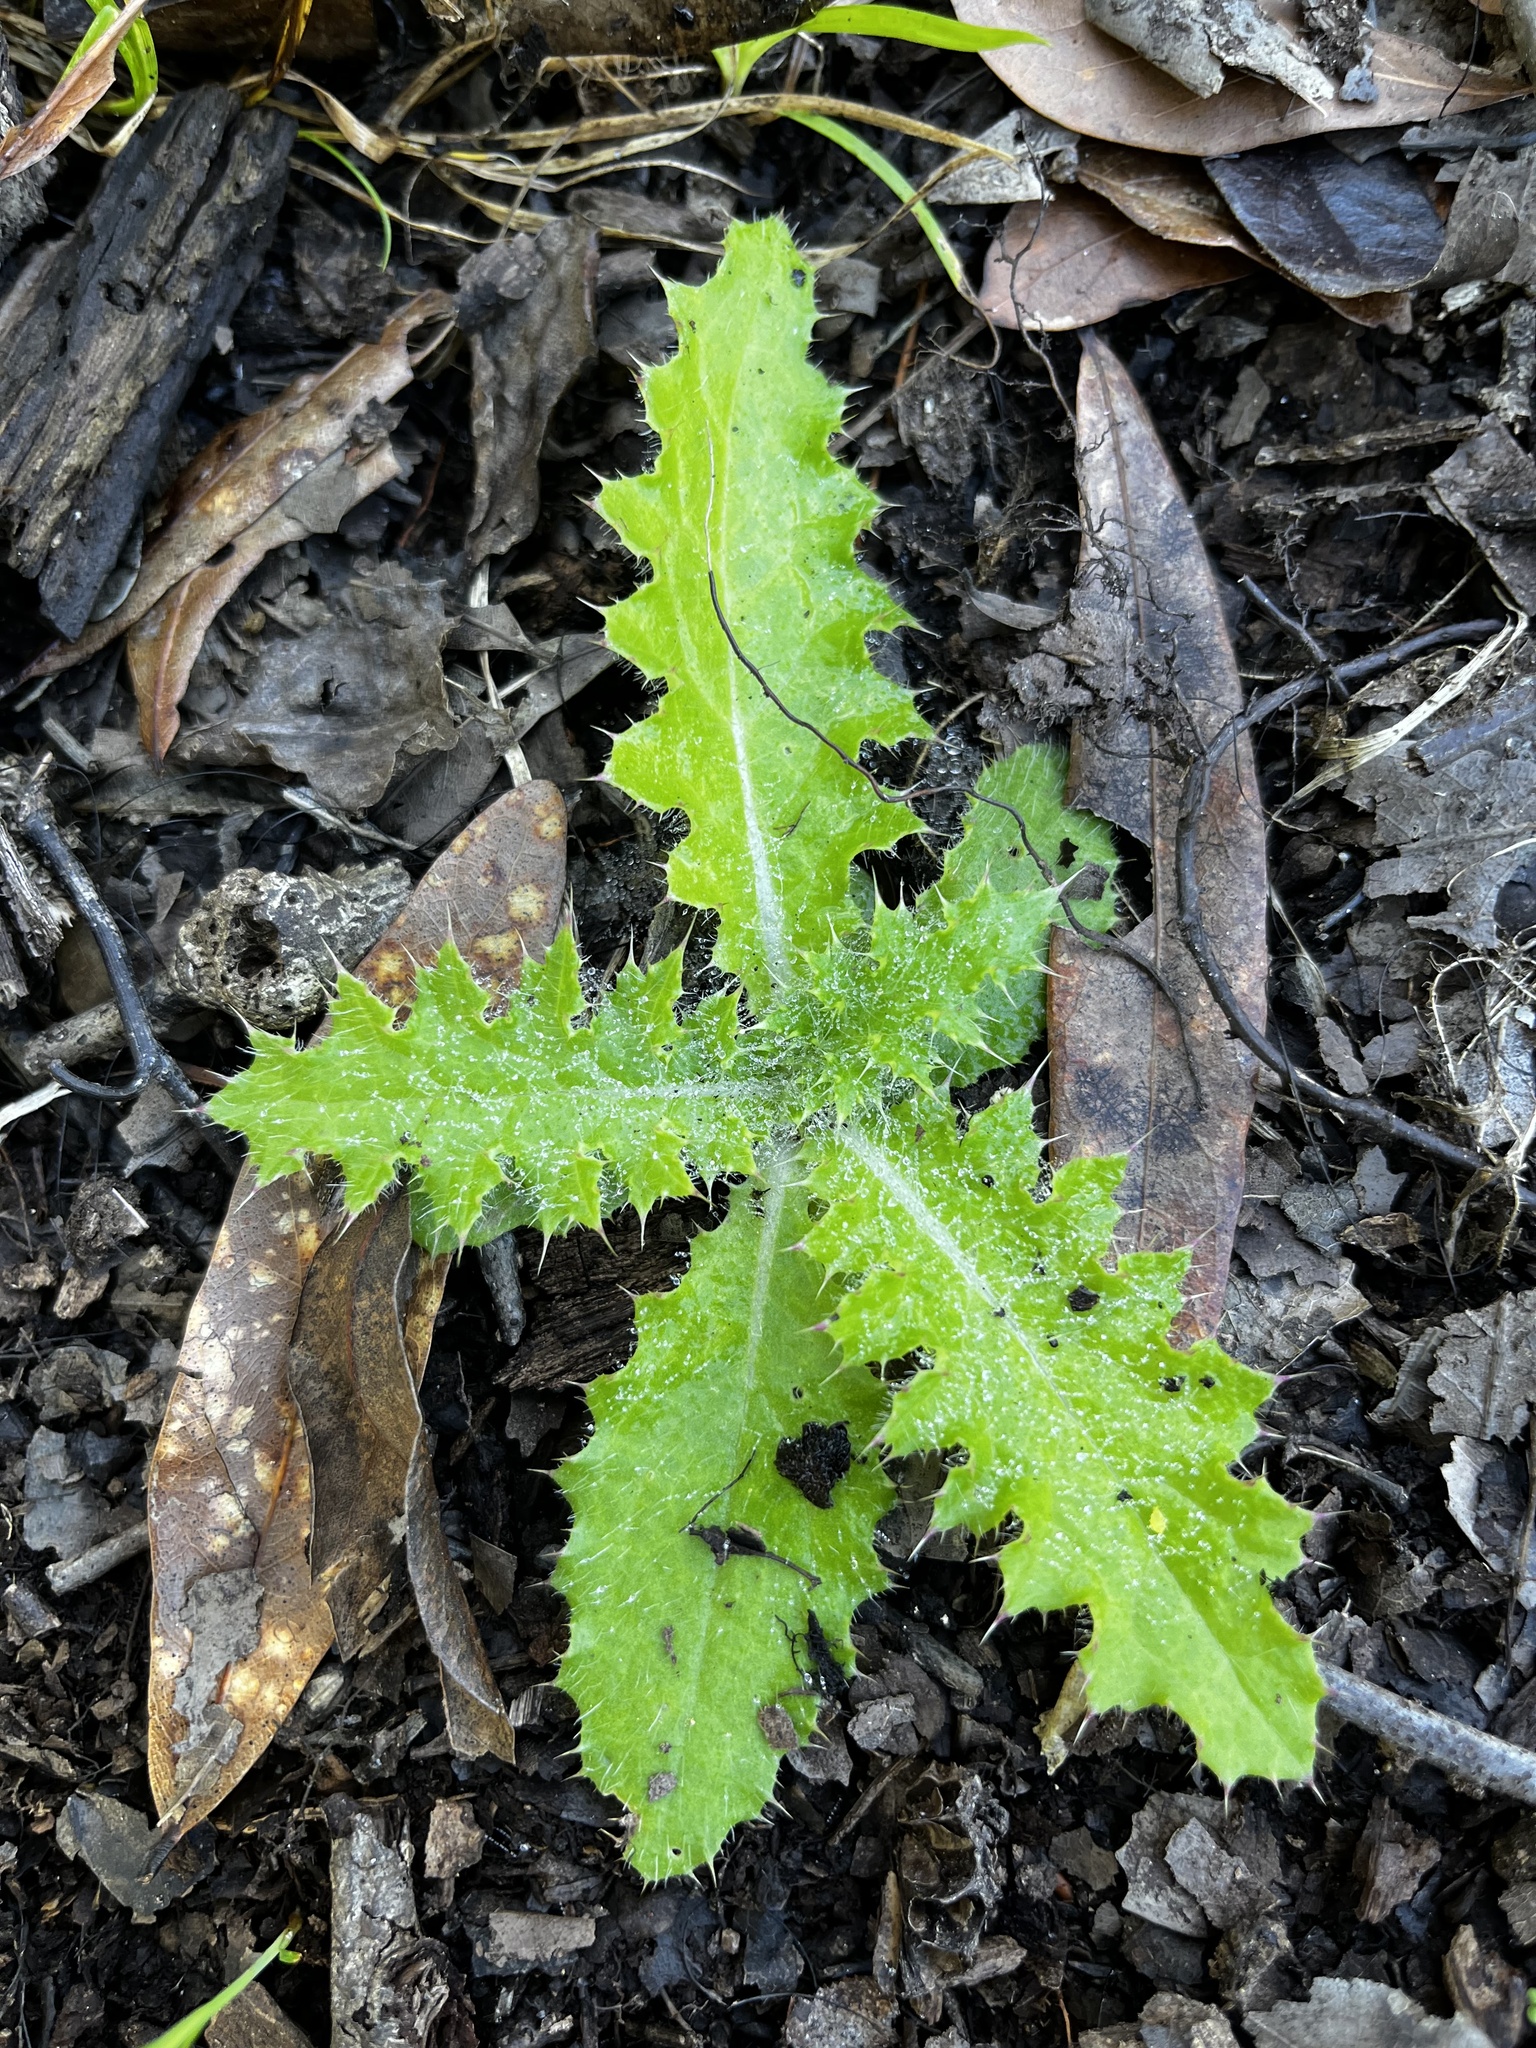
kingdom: Plantae
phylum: Tracheophyta
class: Magnoliopsida
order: Asterales
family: Asteraceae
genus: Cirsium
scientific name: Cirsium nuttalii
